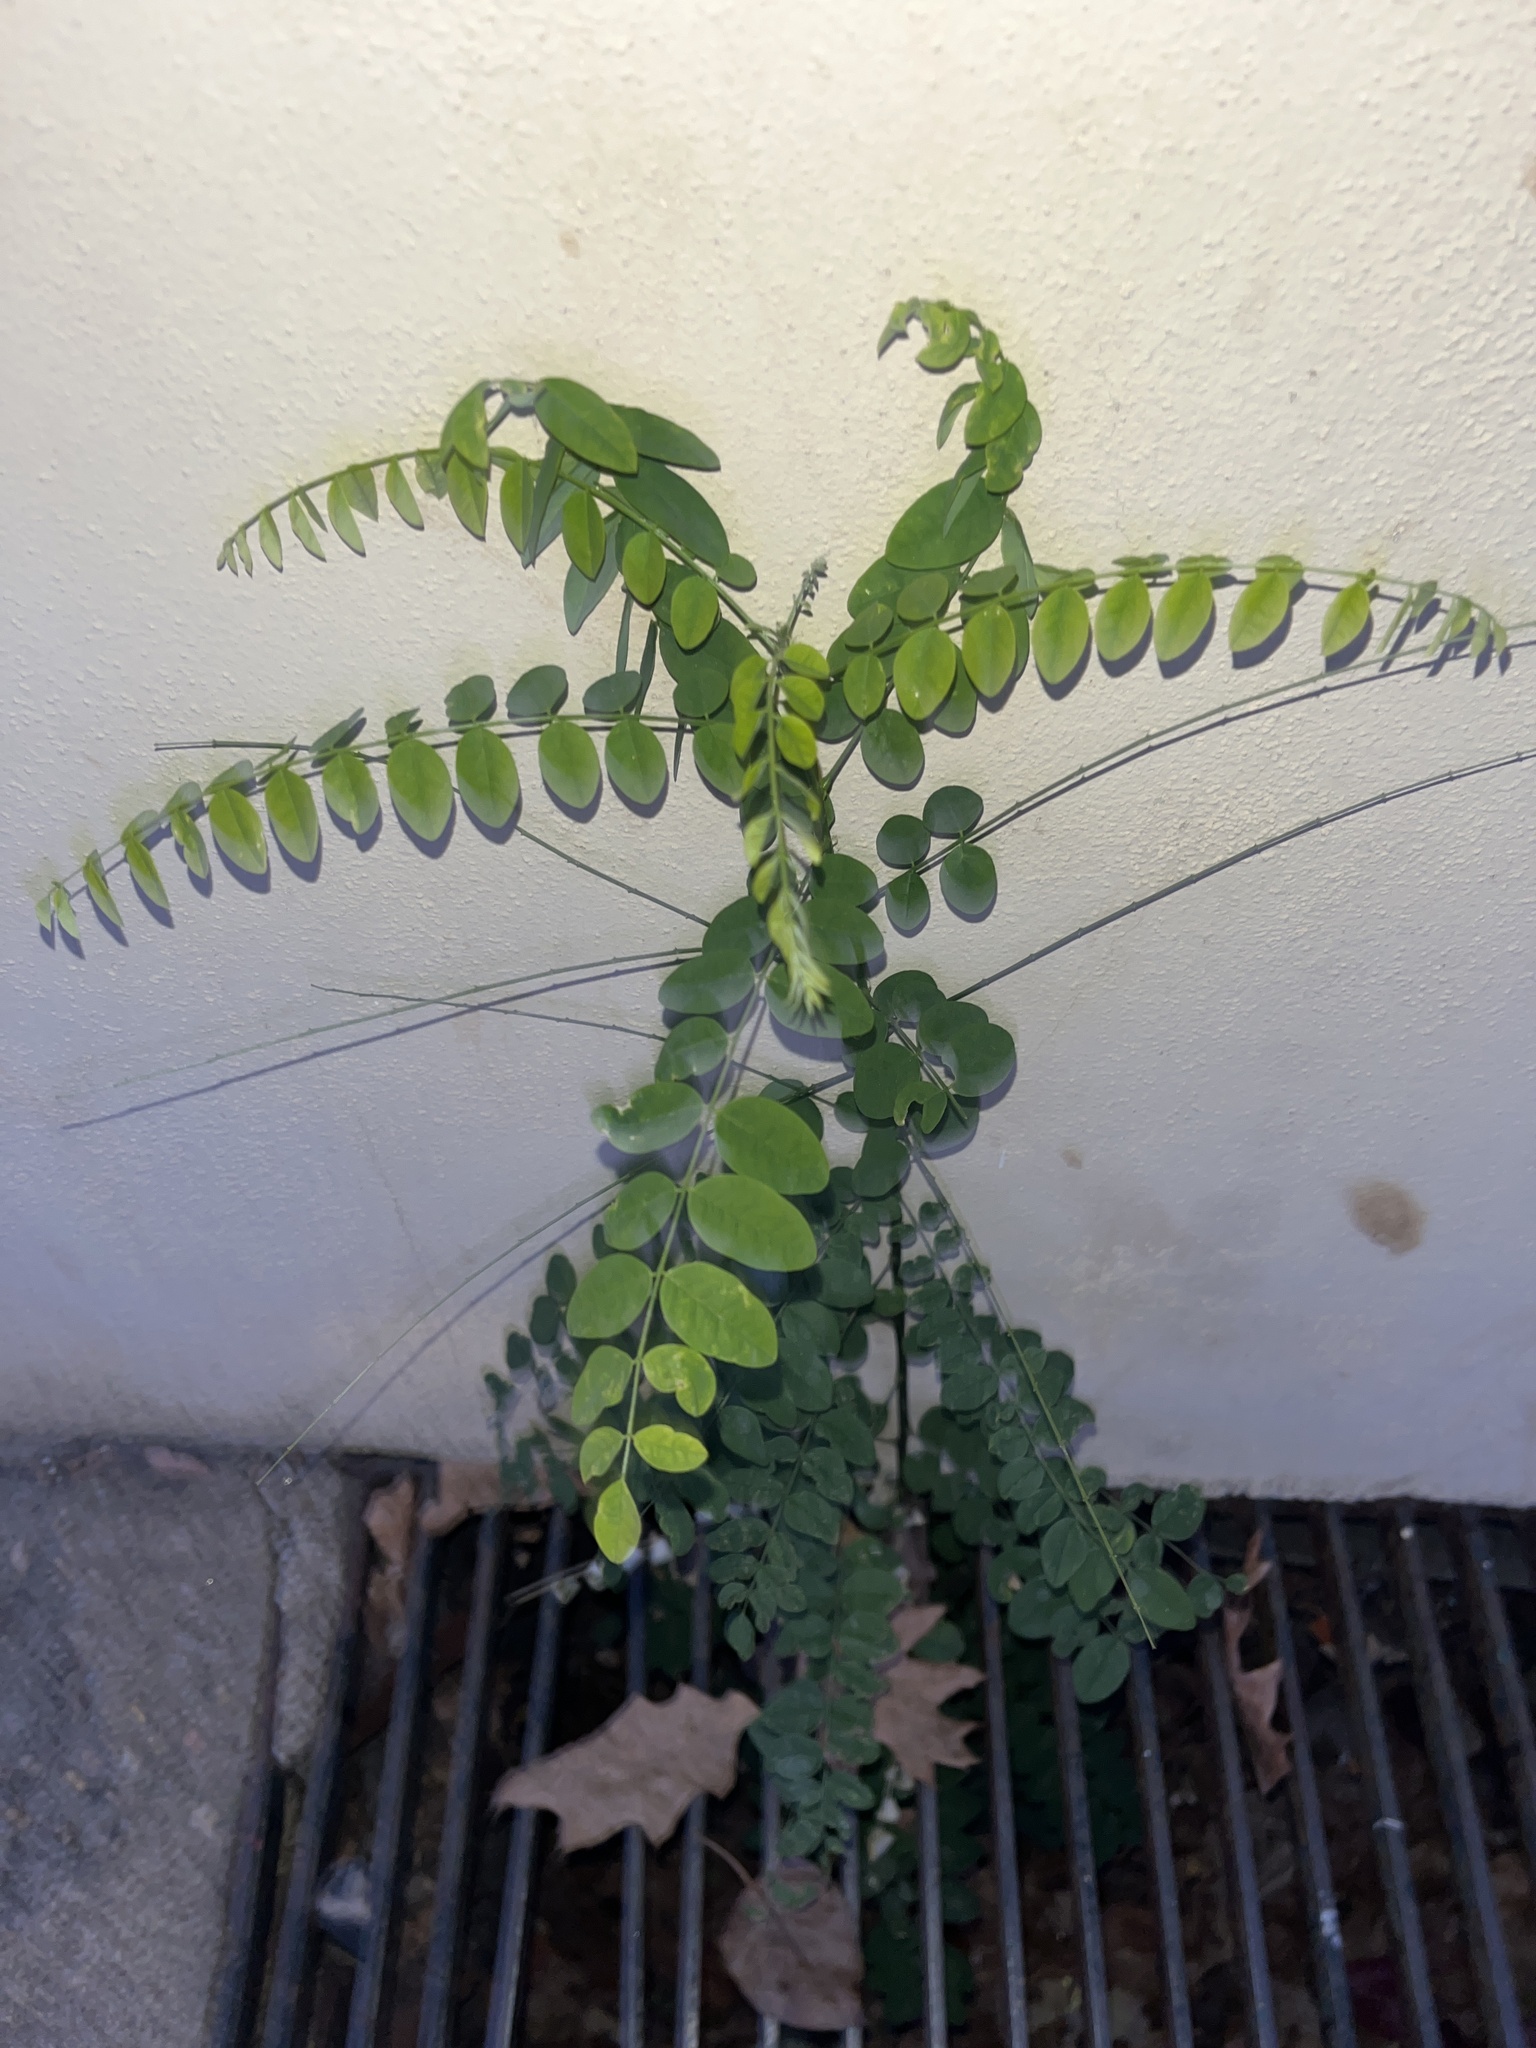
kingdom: Plantae
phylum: Tracheophyta
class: Magnoliopsida
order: Fabales
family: Fabaceae
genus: Robinia
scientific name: Robinia pseudoacacia
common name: Black locust
